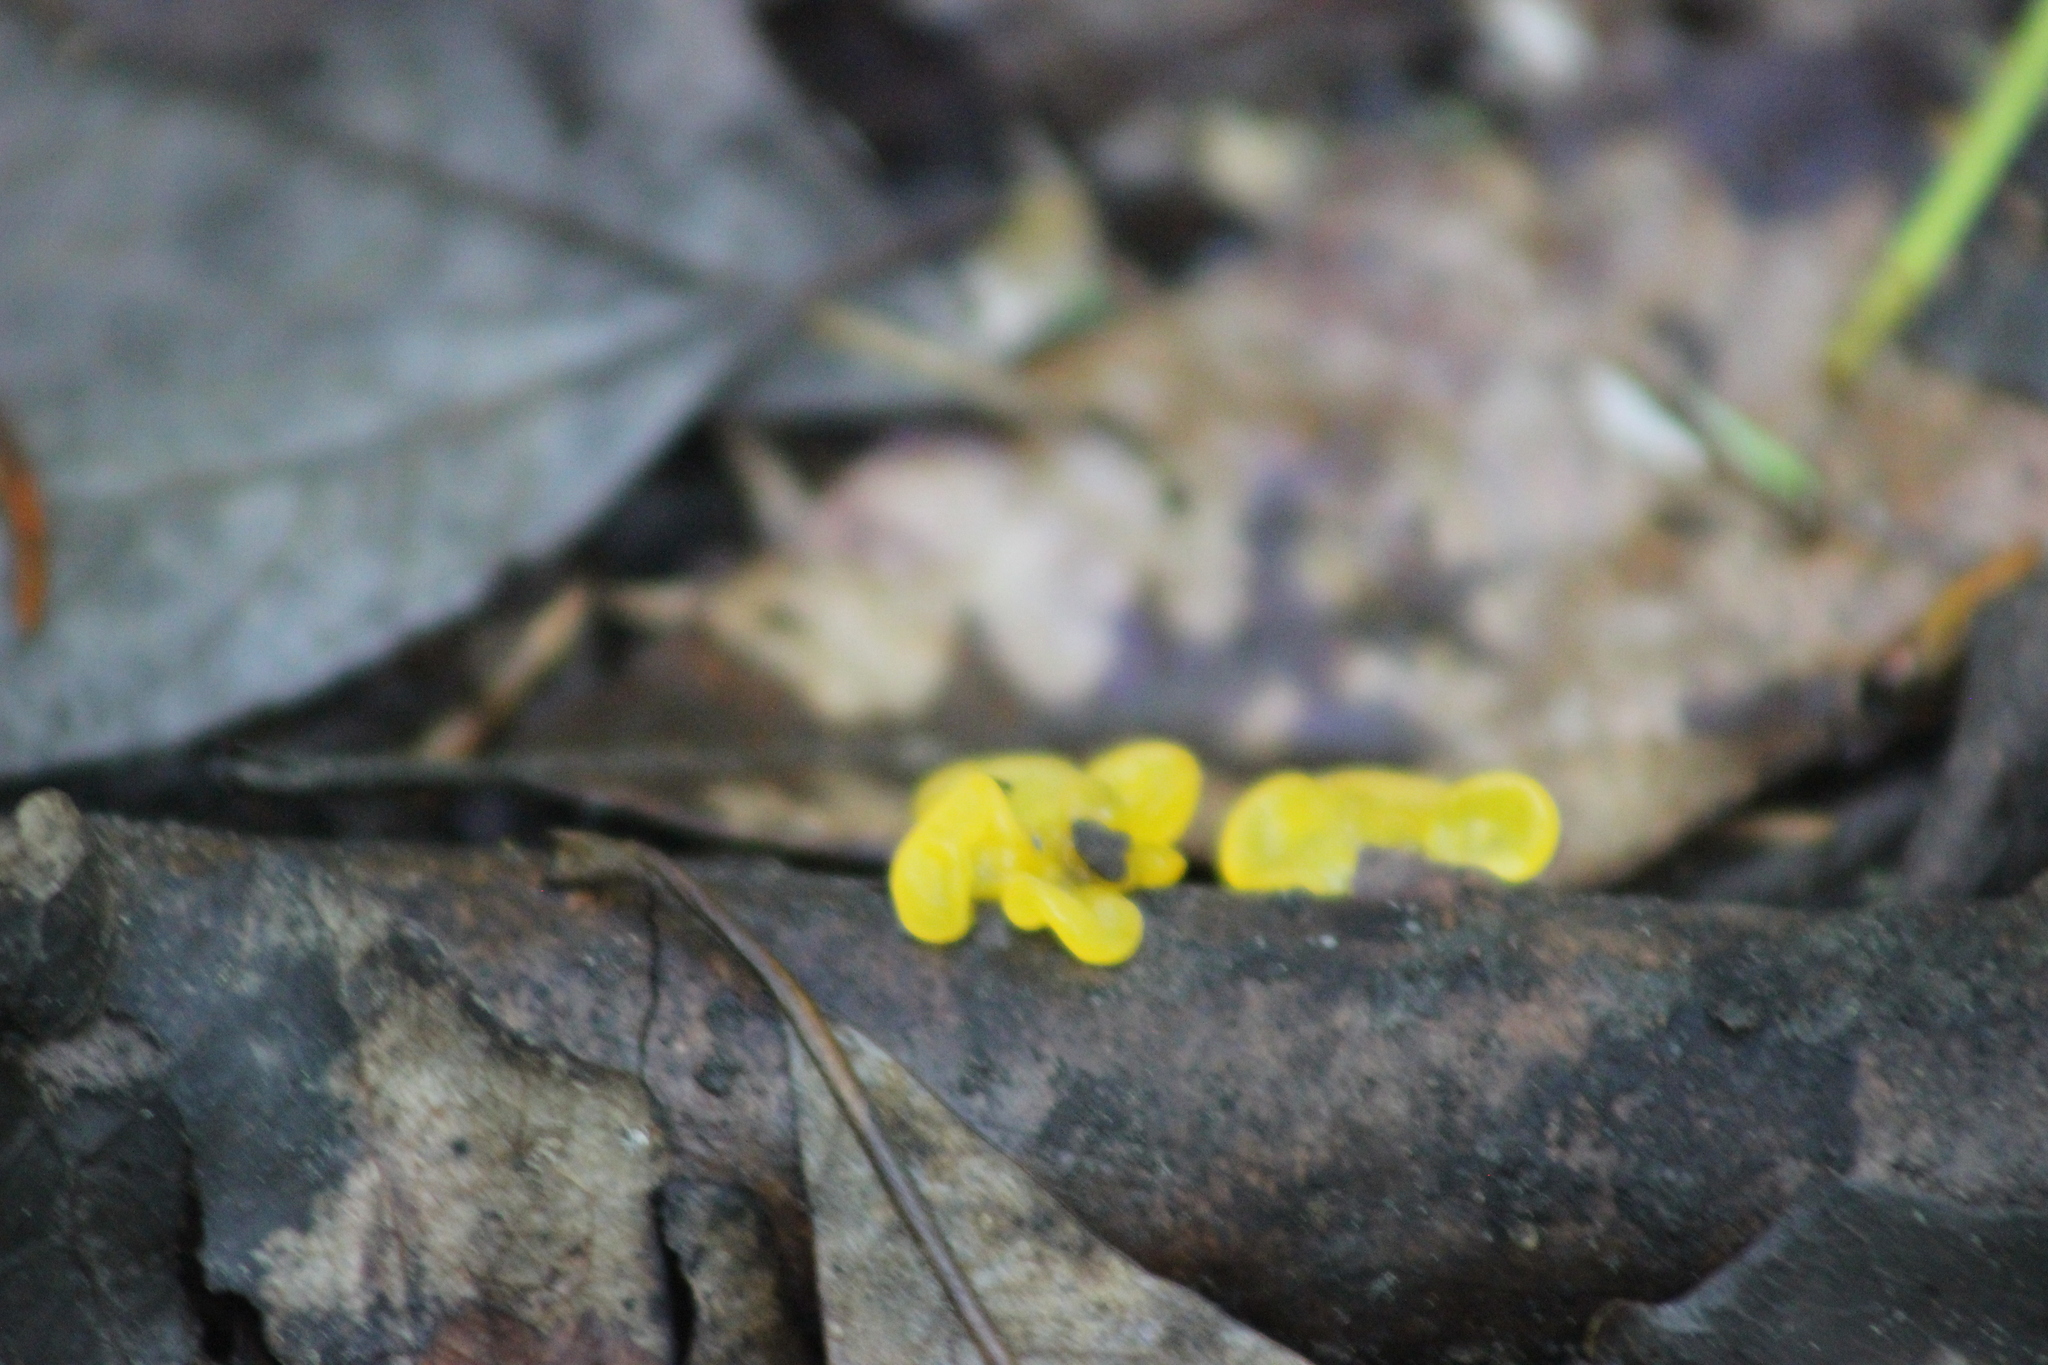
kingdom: Fungi
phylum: Basidiomycota
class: Tremellomycetes
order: Tremellales
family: Tremellaceae
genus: Tremella
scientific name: Tremella mesenterica
